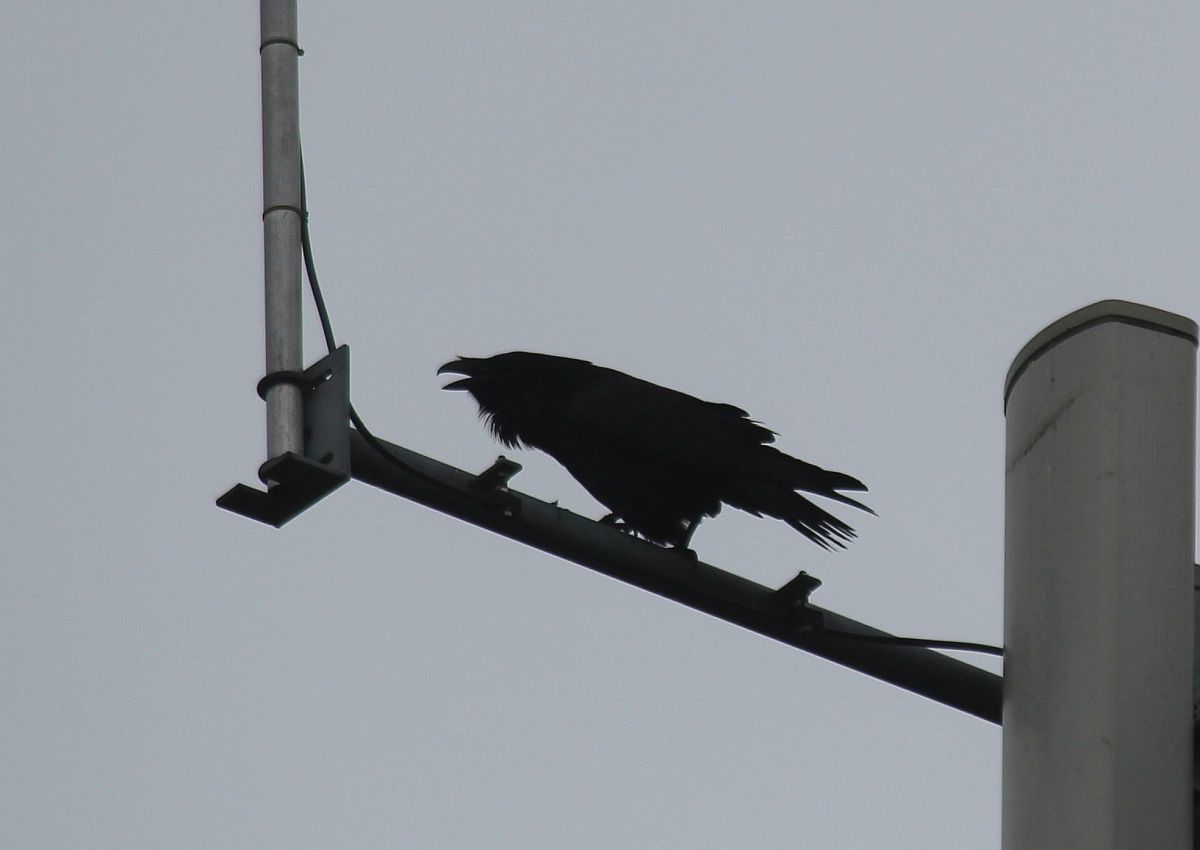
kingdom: Animalia
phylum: Chordata
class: Aves
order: Passeriformes
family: Corvidae
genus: Corvus
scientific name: Corvus corax
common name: Common raven
